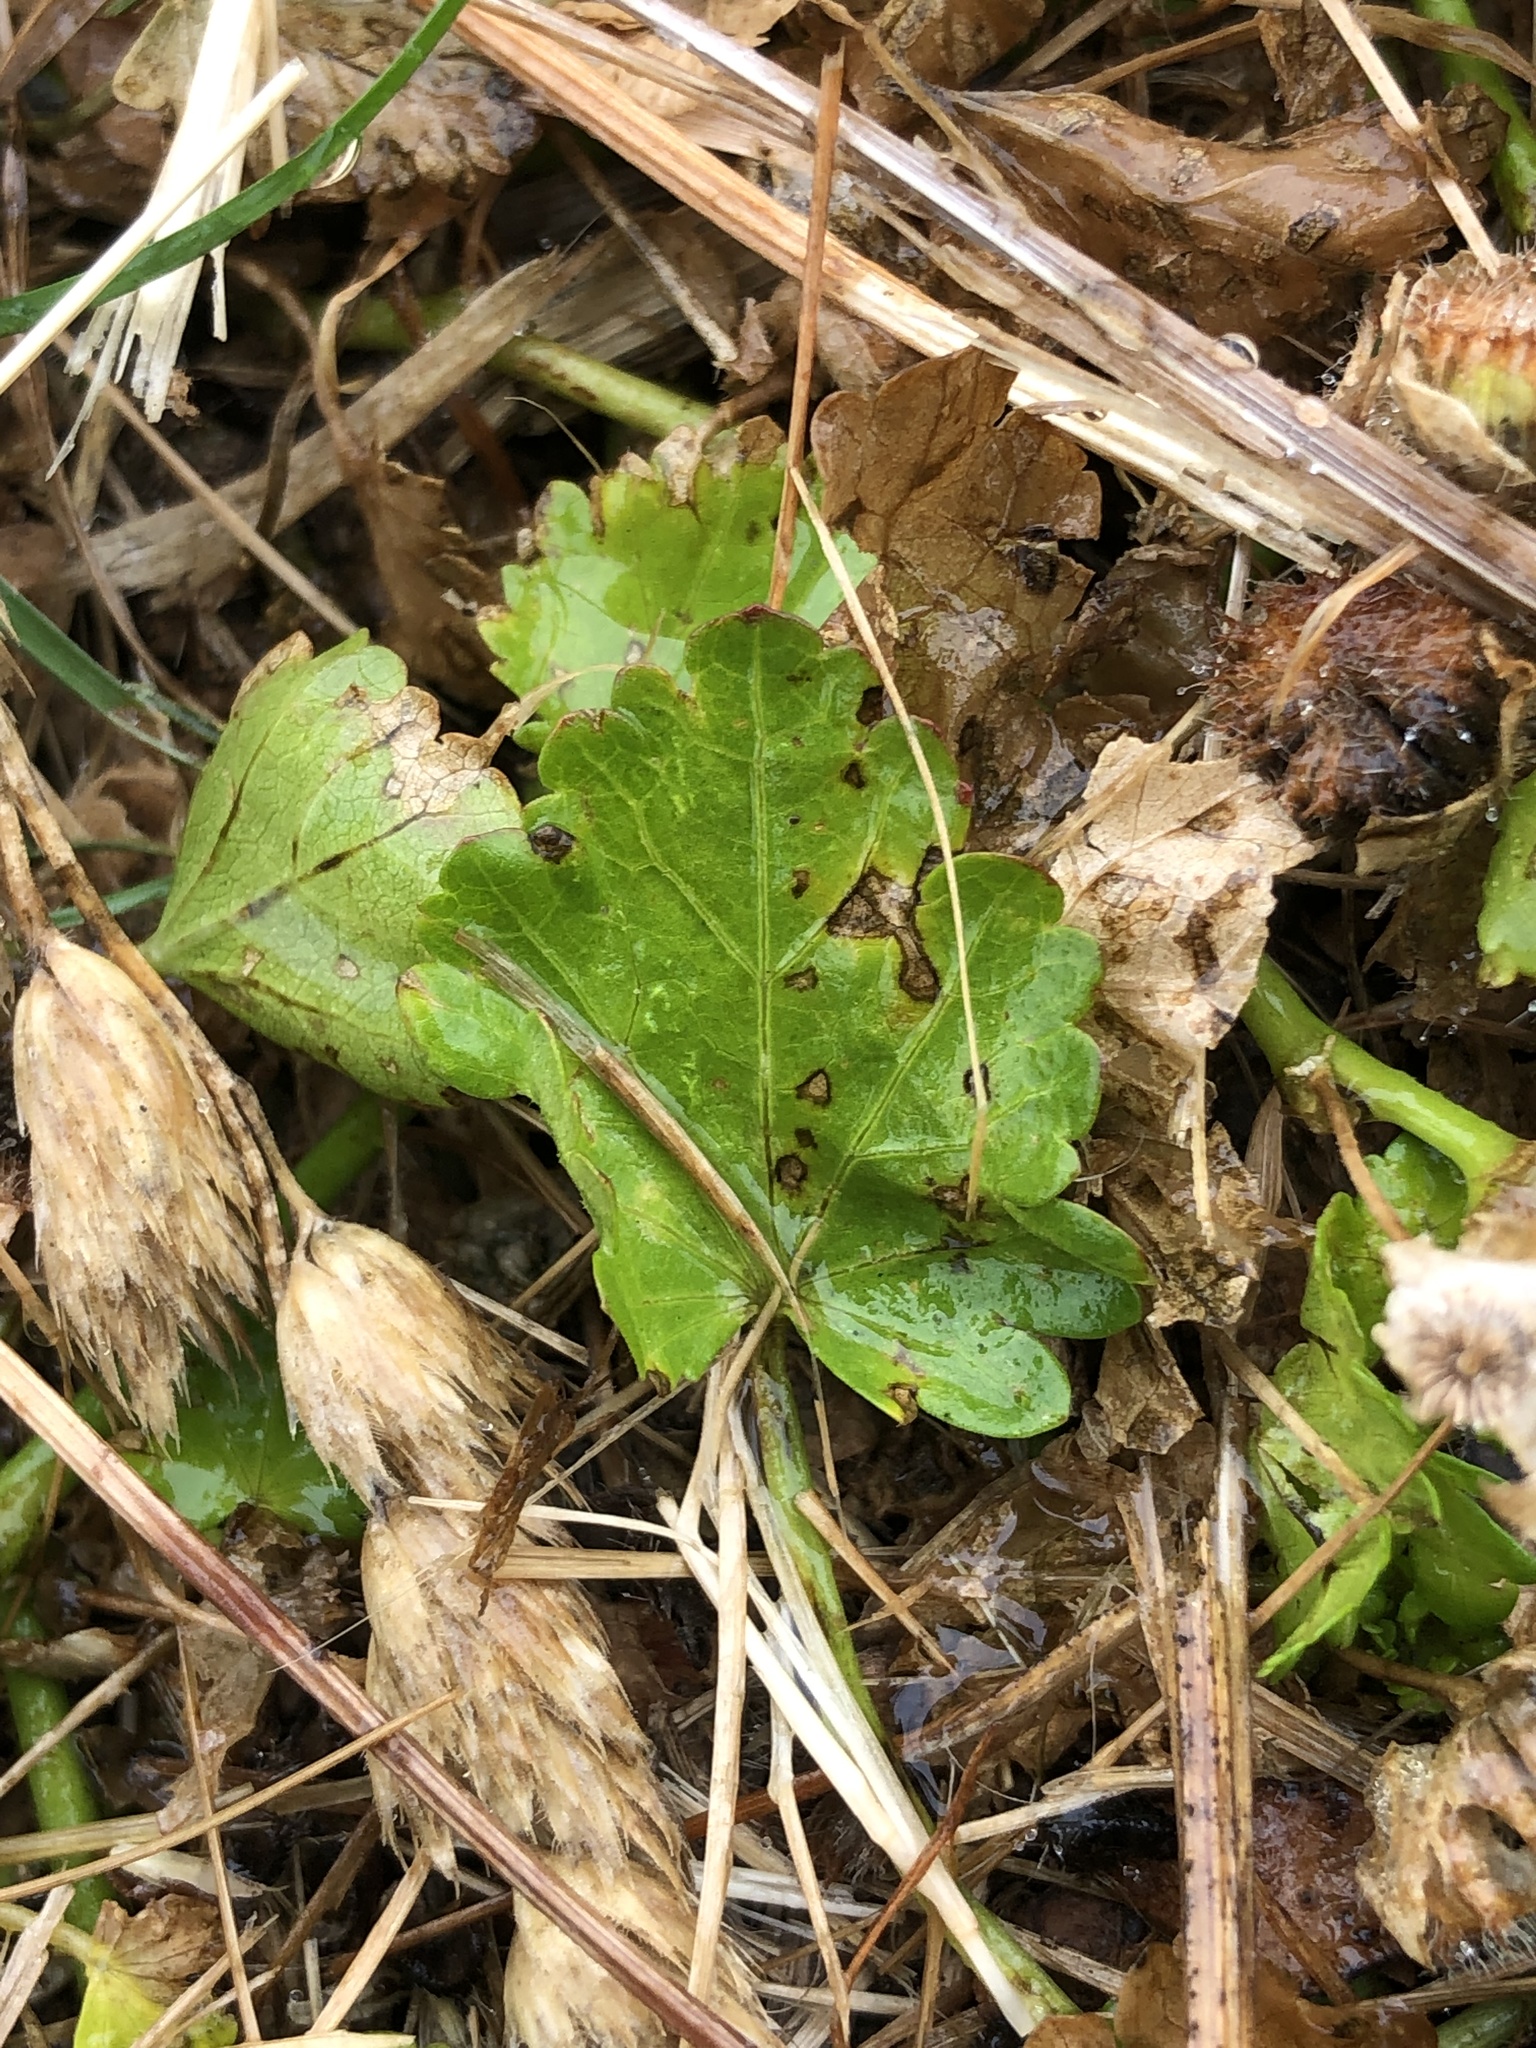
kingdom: Plantae
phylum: Tracheophyta
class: Magnoliopsida
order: Malvales
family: Malvaceae
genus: Modiola
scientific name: Modiola caroliniana
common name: Carolina bristlemallow
